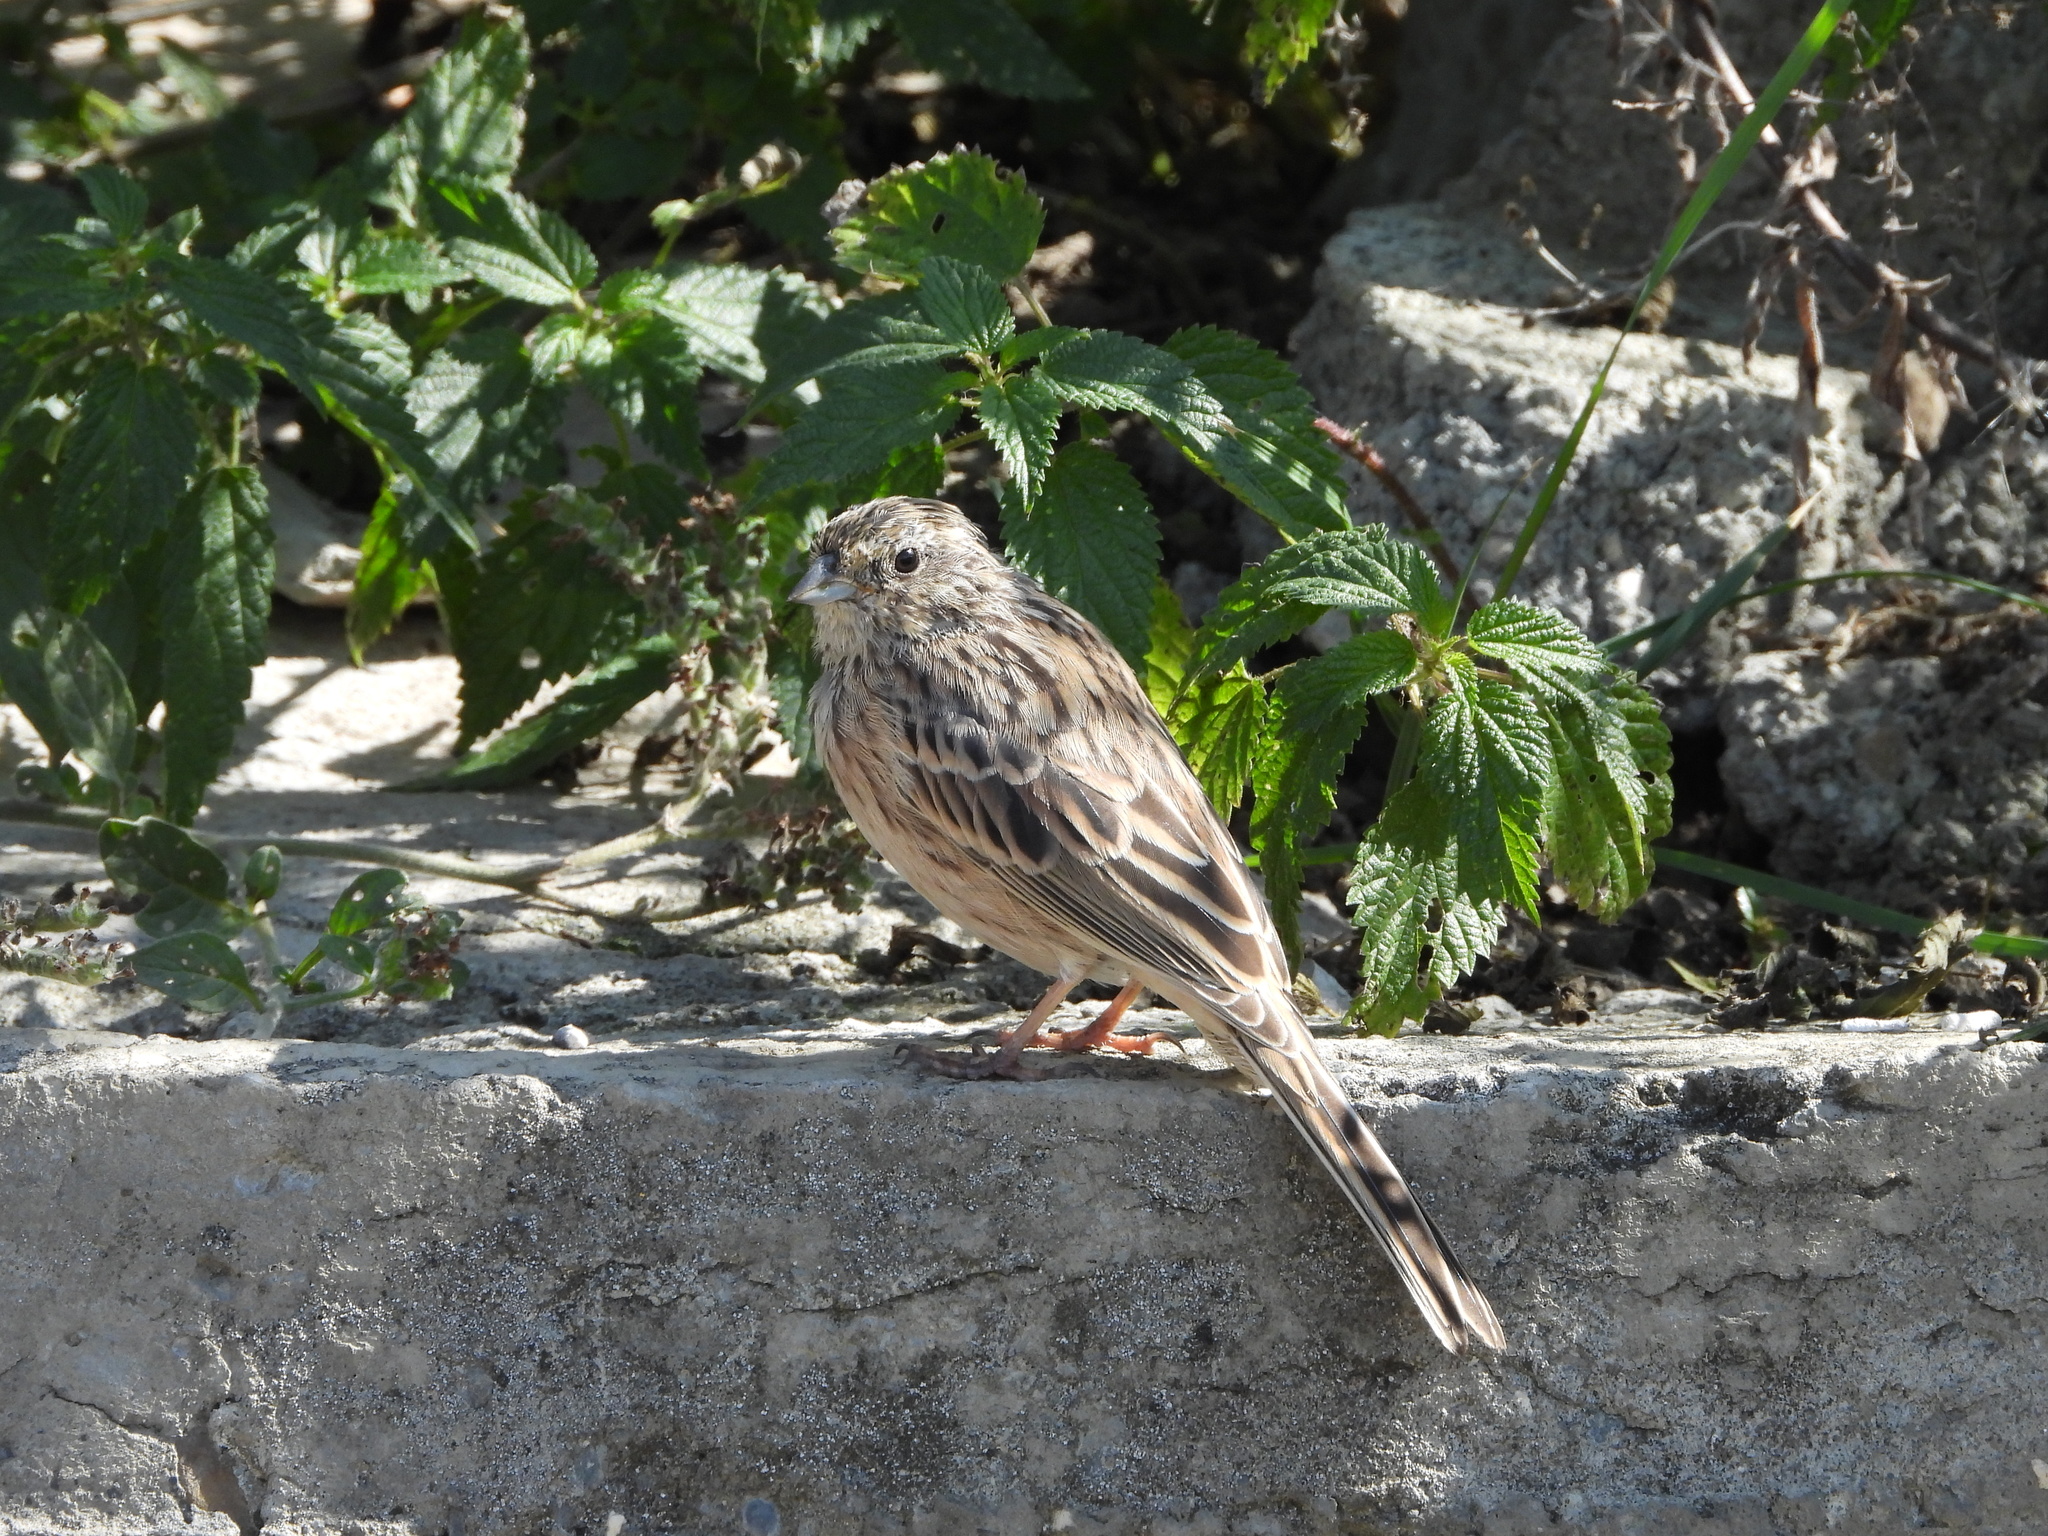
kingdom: Animalia
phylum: Chordata
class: Aves
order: Passeriformes
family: Emberizidae
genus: Emberiza
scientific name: Emberiza cia
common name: Rock bunting
